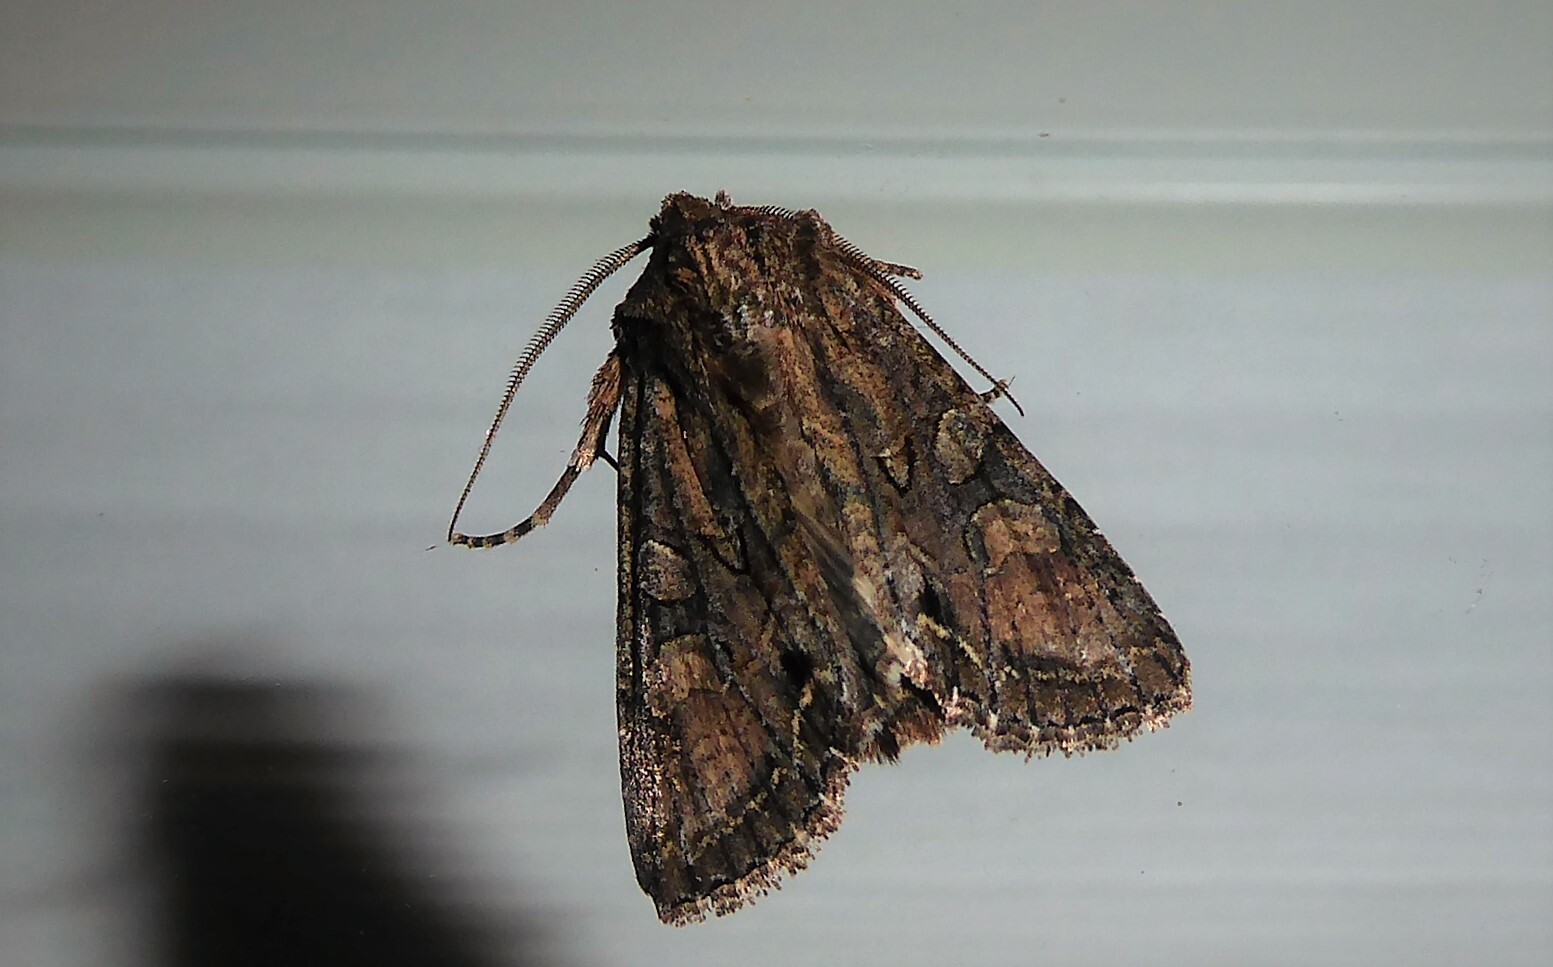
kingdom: Animalia
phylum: Arthropoda
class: Insecta
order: Lepidoptera
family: Noctuidae
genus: Ichneutica
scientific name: Ichneutica mutans
